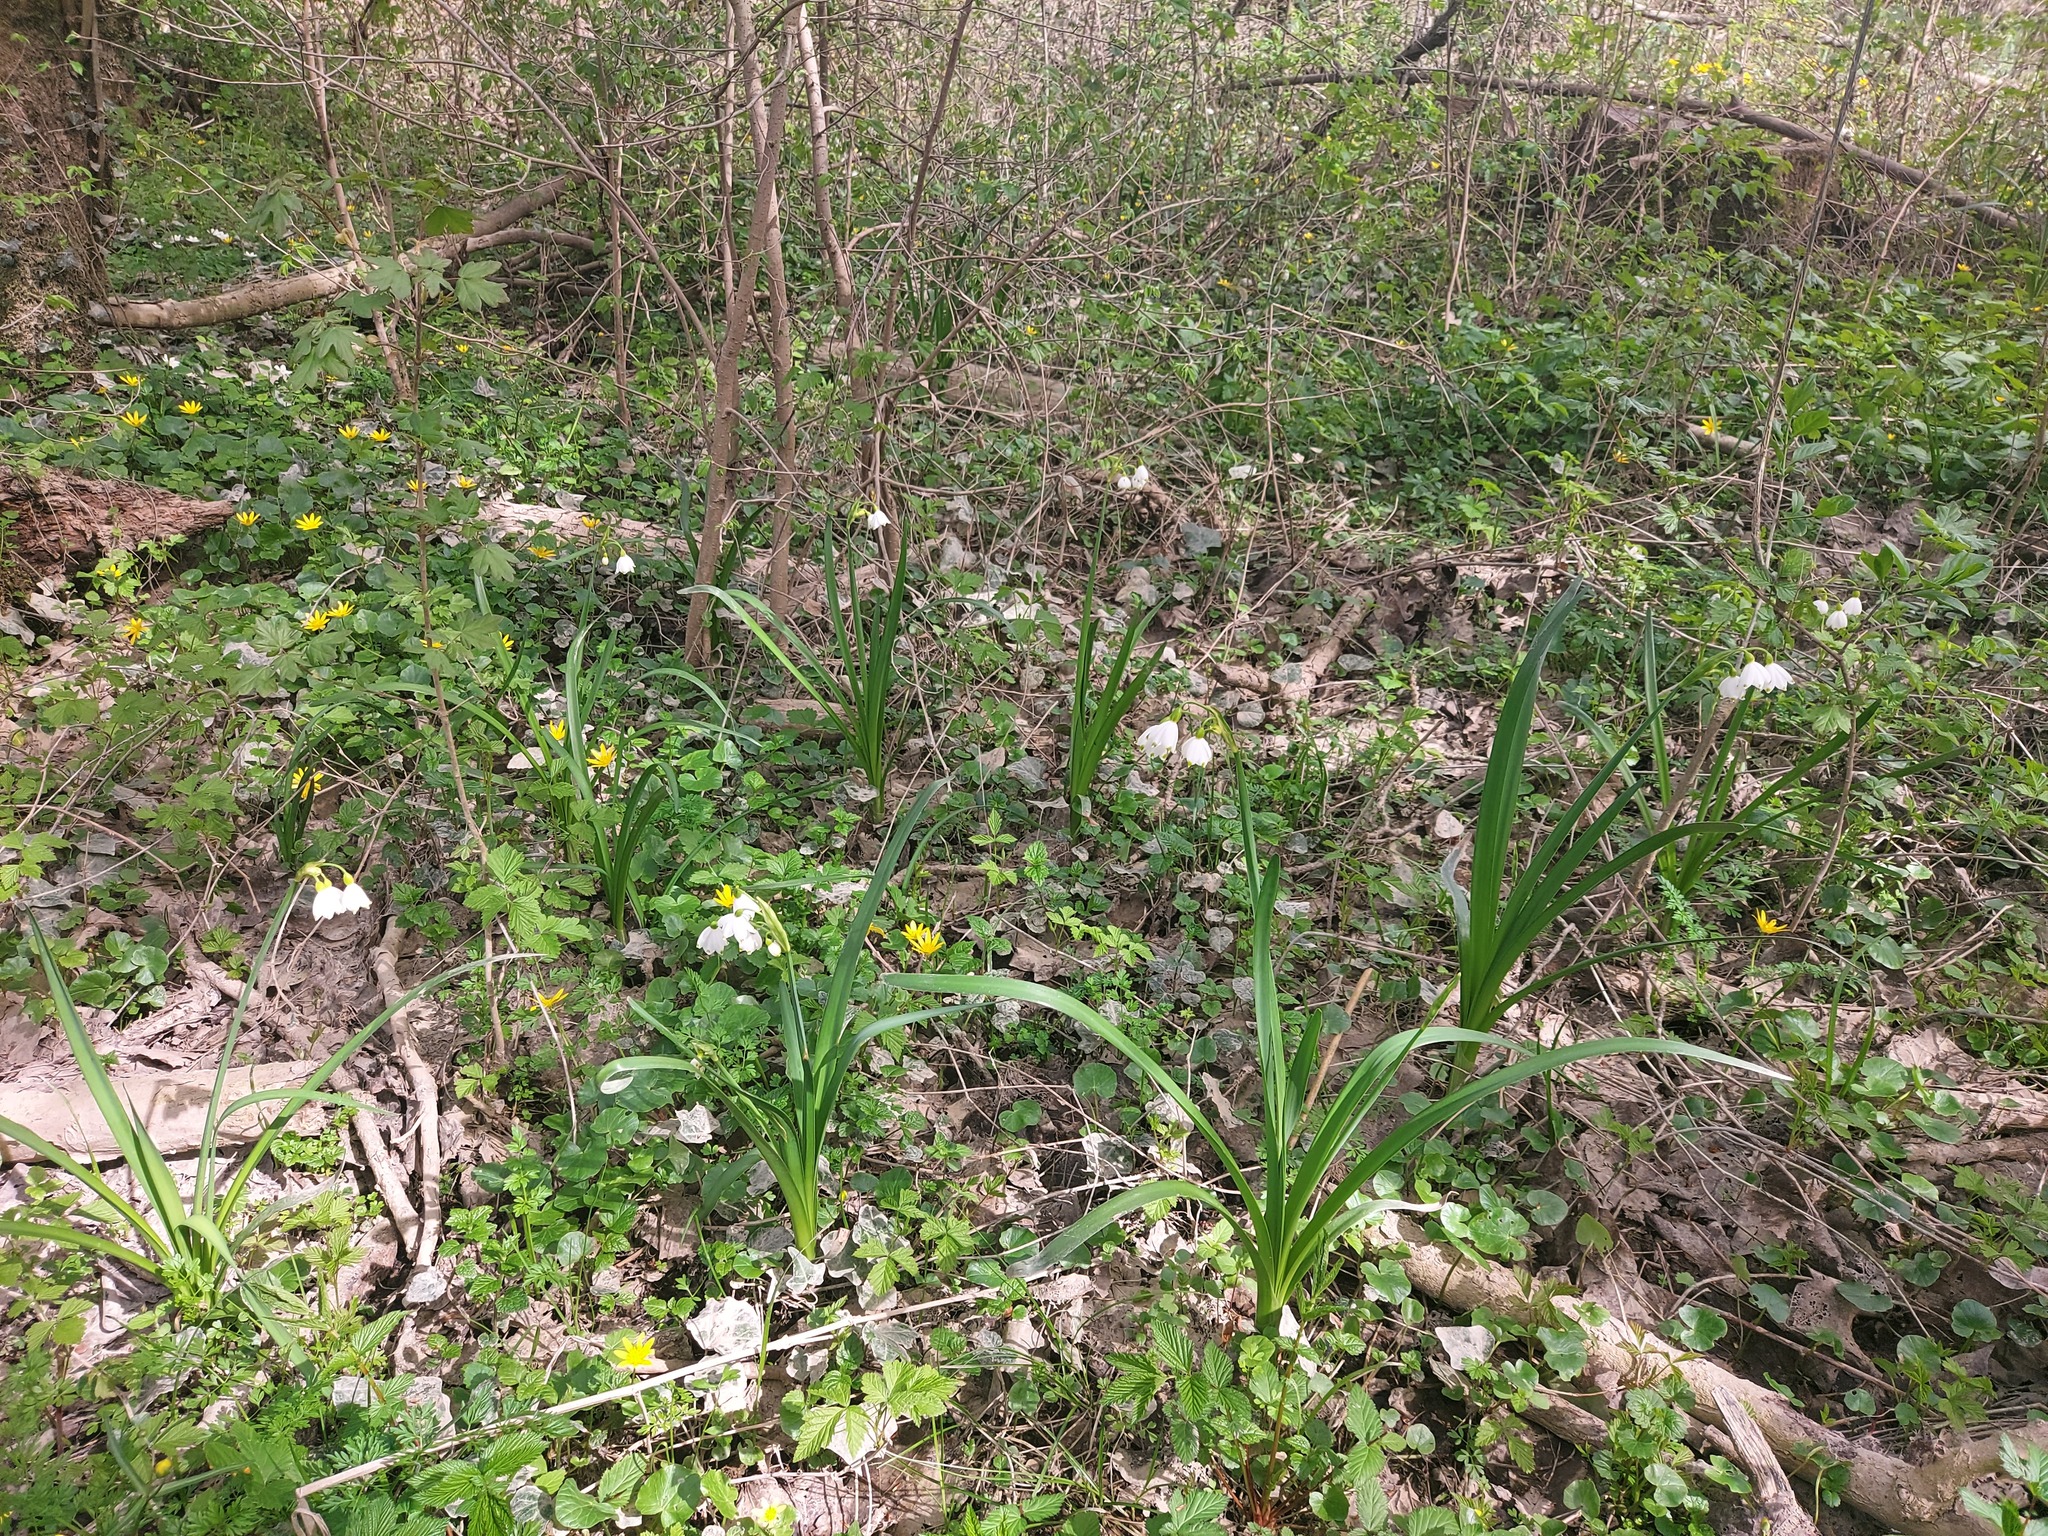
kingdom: Plantae
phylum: Tracheophyta
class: Liliopsida
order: Asparagales
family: Amaryllidaceae
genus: Leucojum
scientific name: Leucojum aestivum
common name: Summer snowflake
